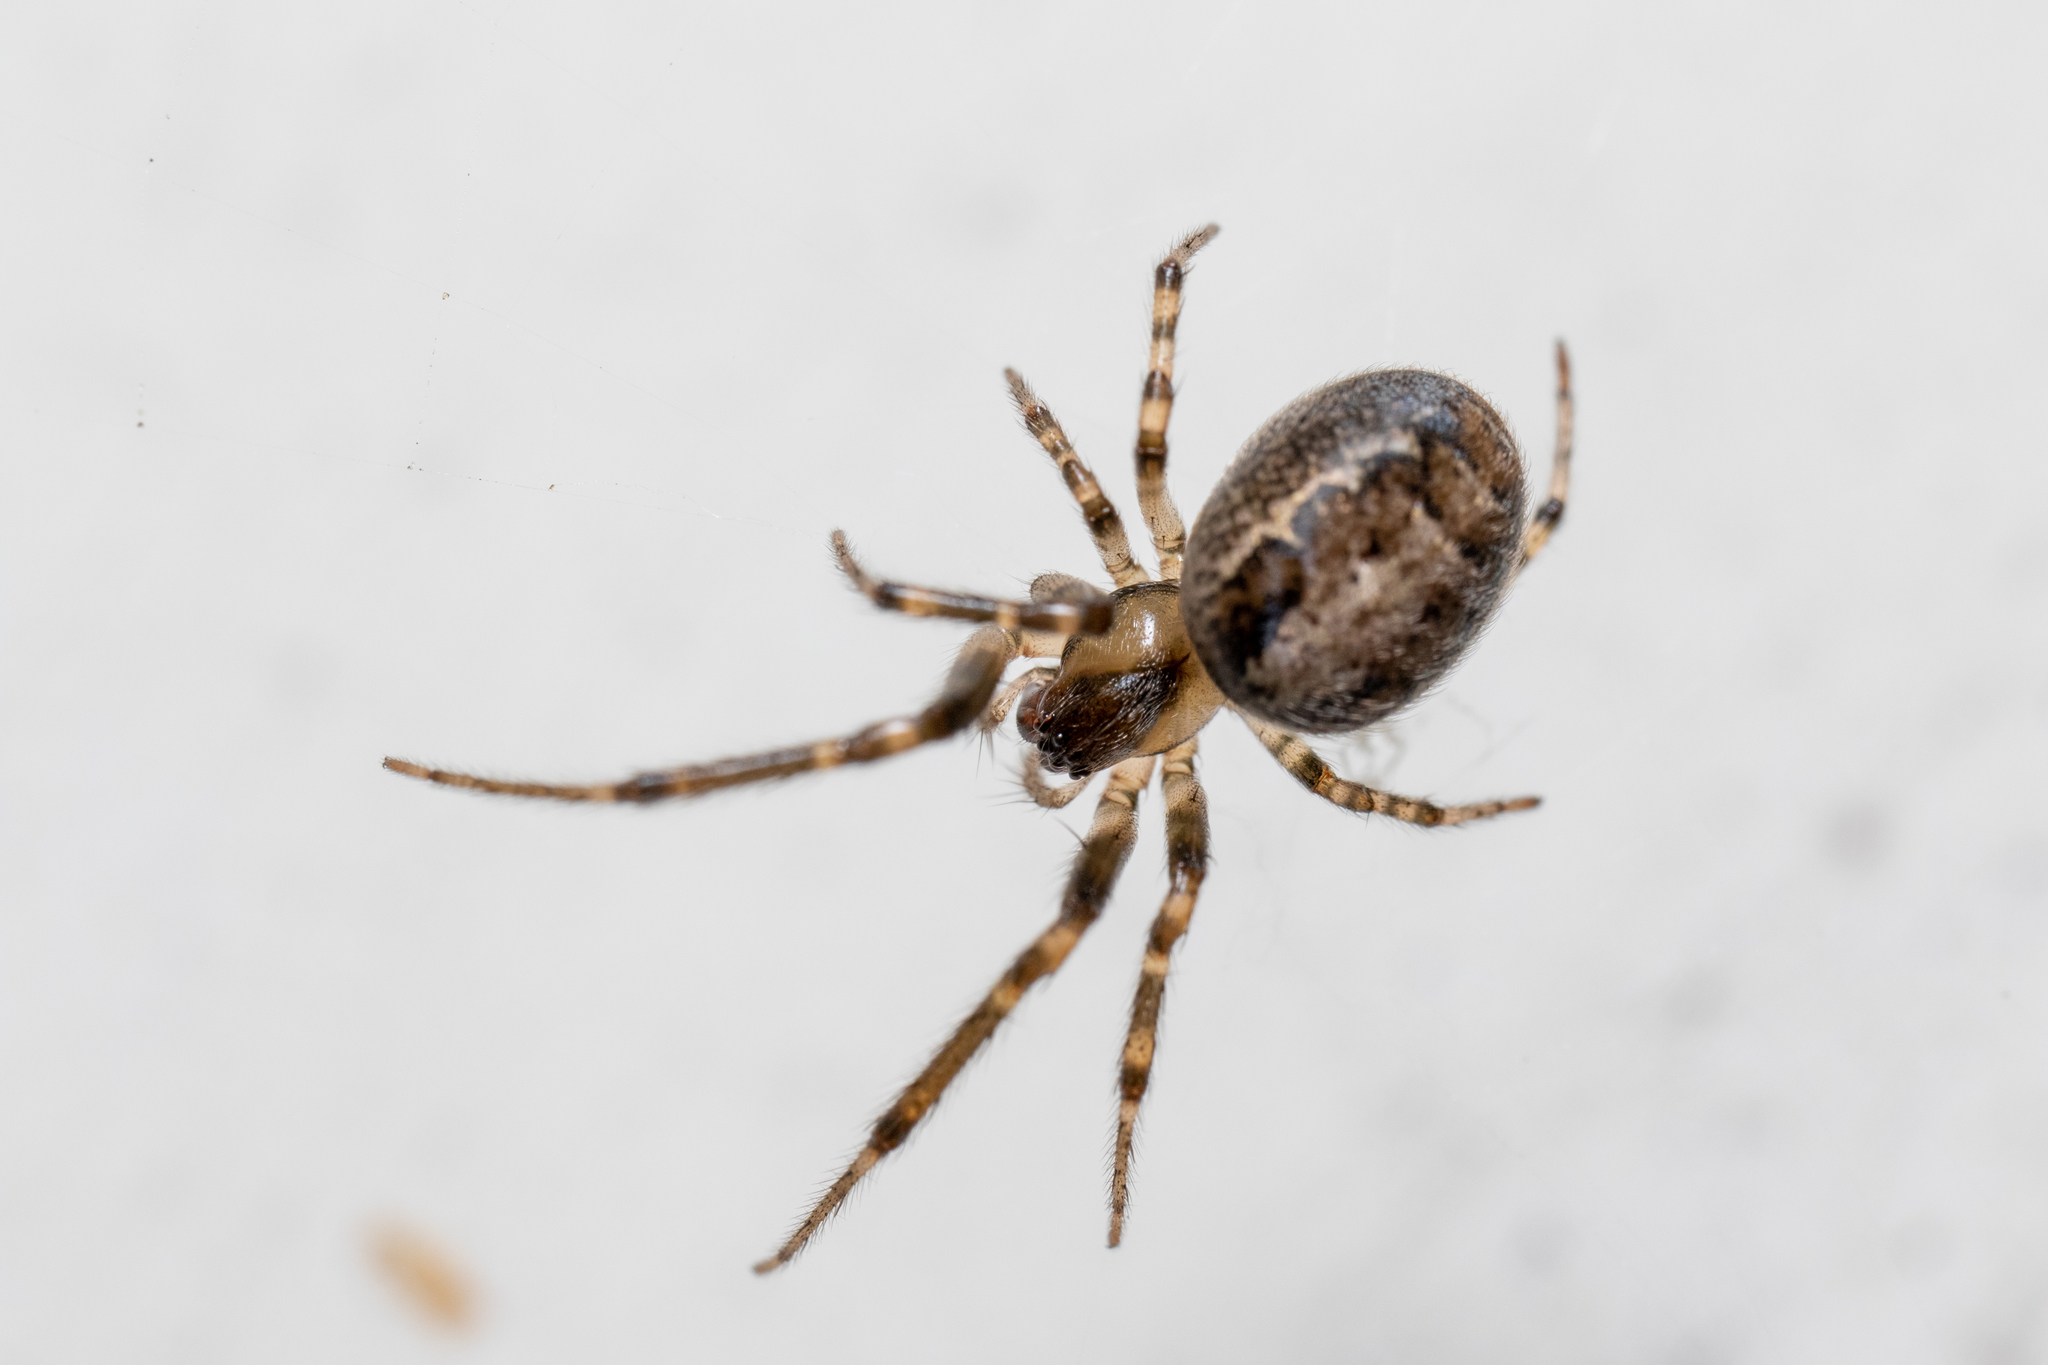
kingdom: Animalia
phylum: Arthropoda
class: Arachnida
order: Araneae
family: Araneidae
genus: Zygiella
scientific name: Zygiella x-notata
